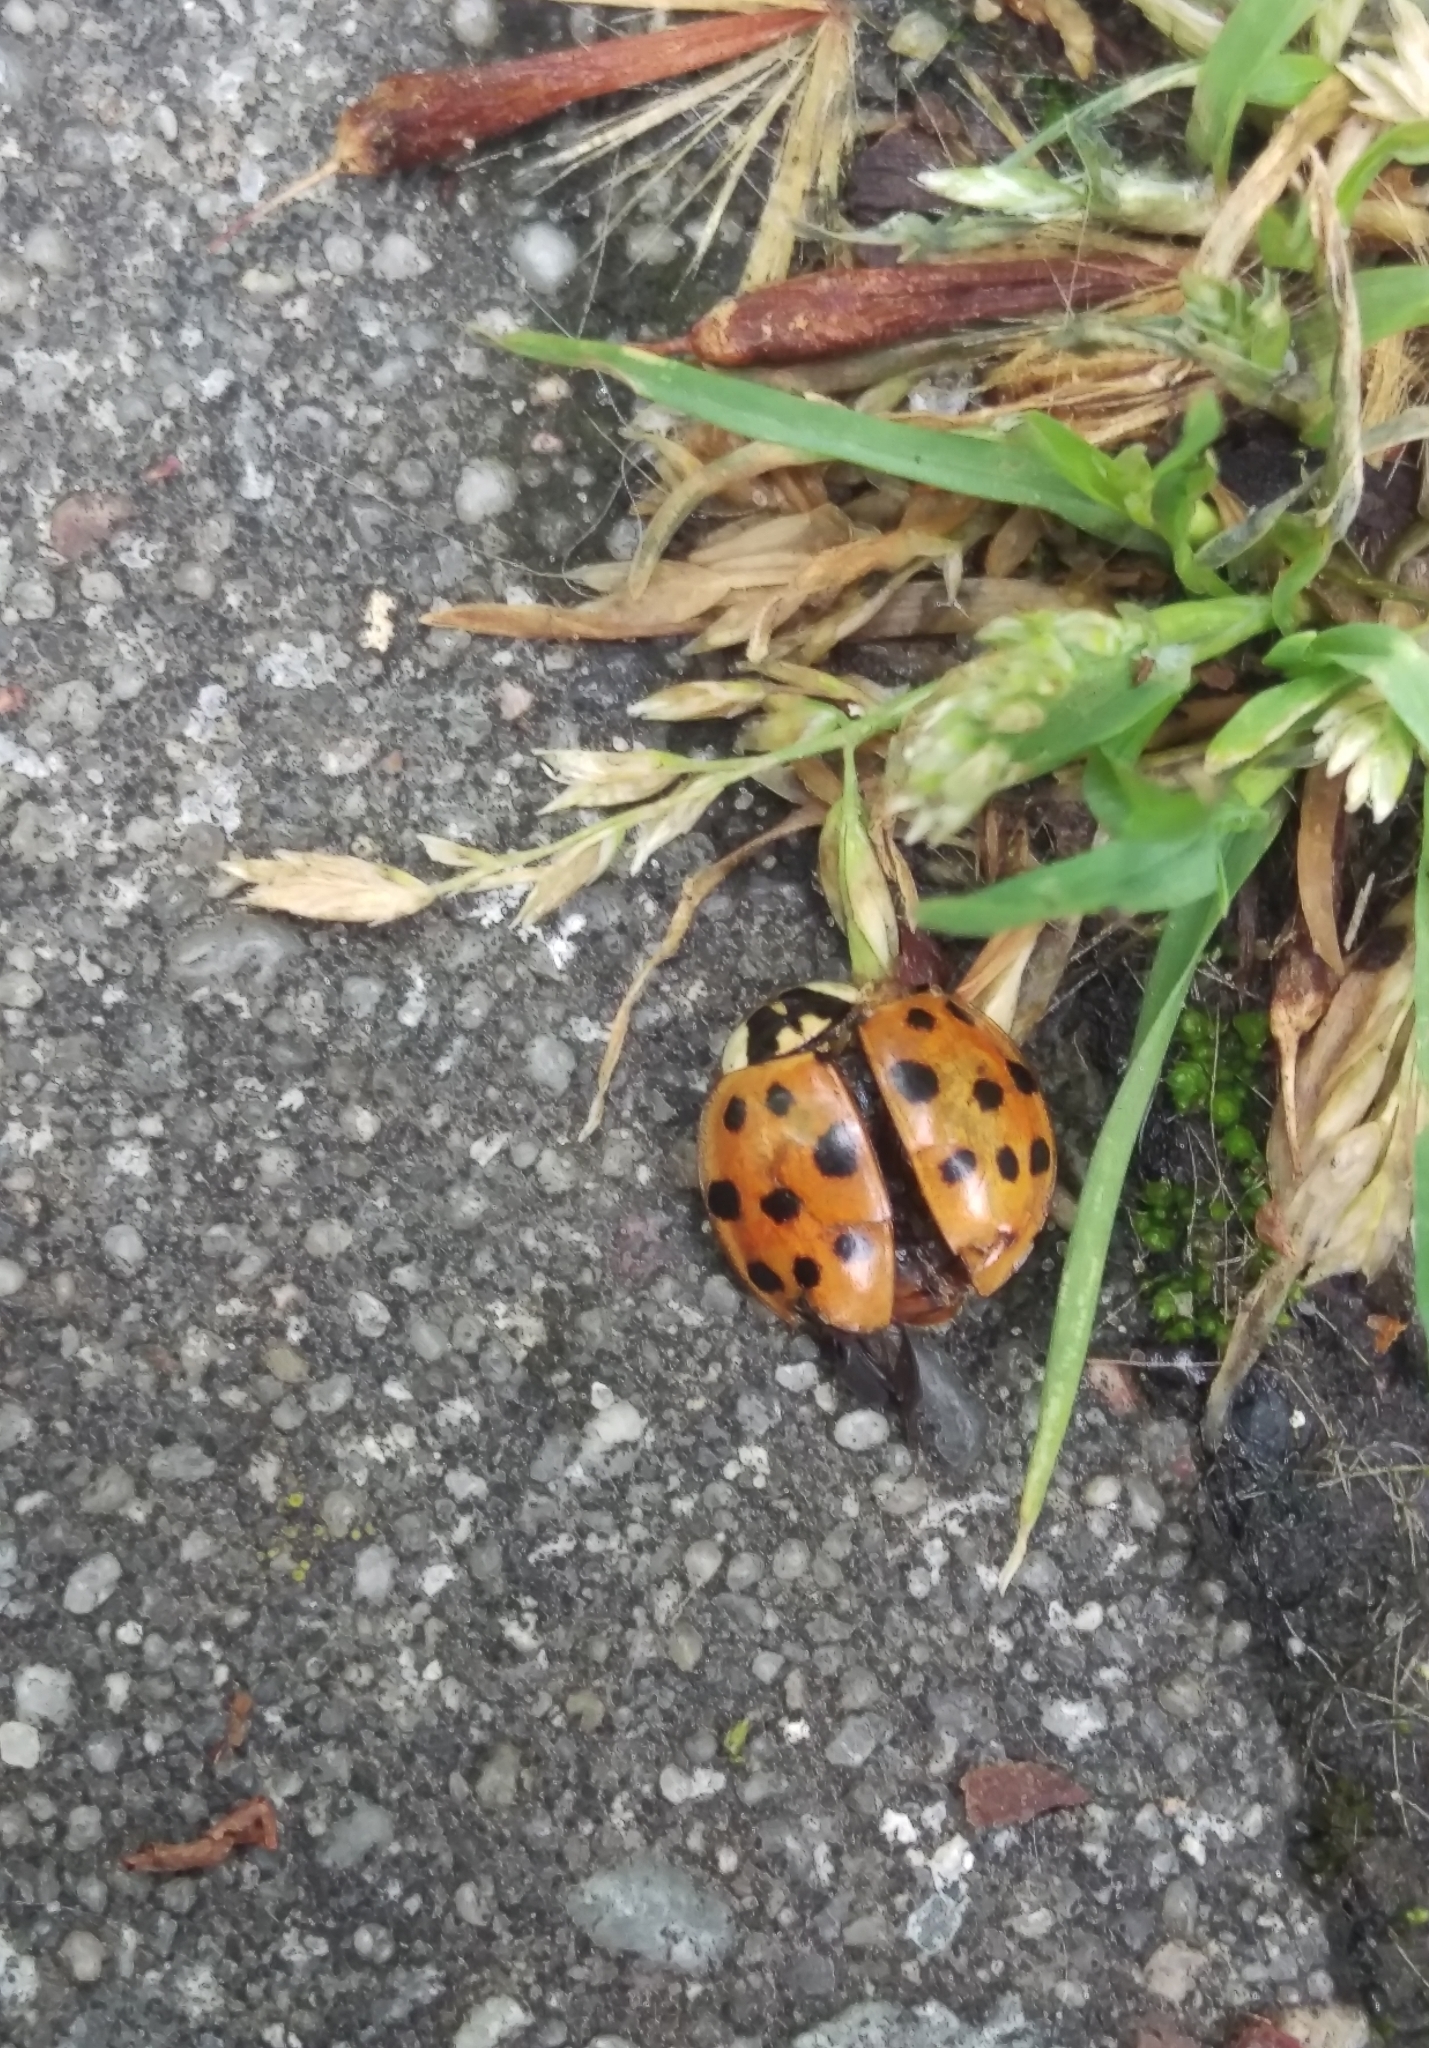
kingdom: Animalia
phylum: Arthropoda
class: Insecta
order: Coleoptera
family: Coccinellidae
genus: Harmonia
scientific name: Harmonia axyridis
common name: Harlequin ladybird
